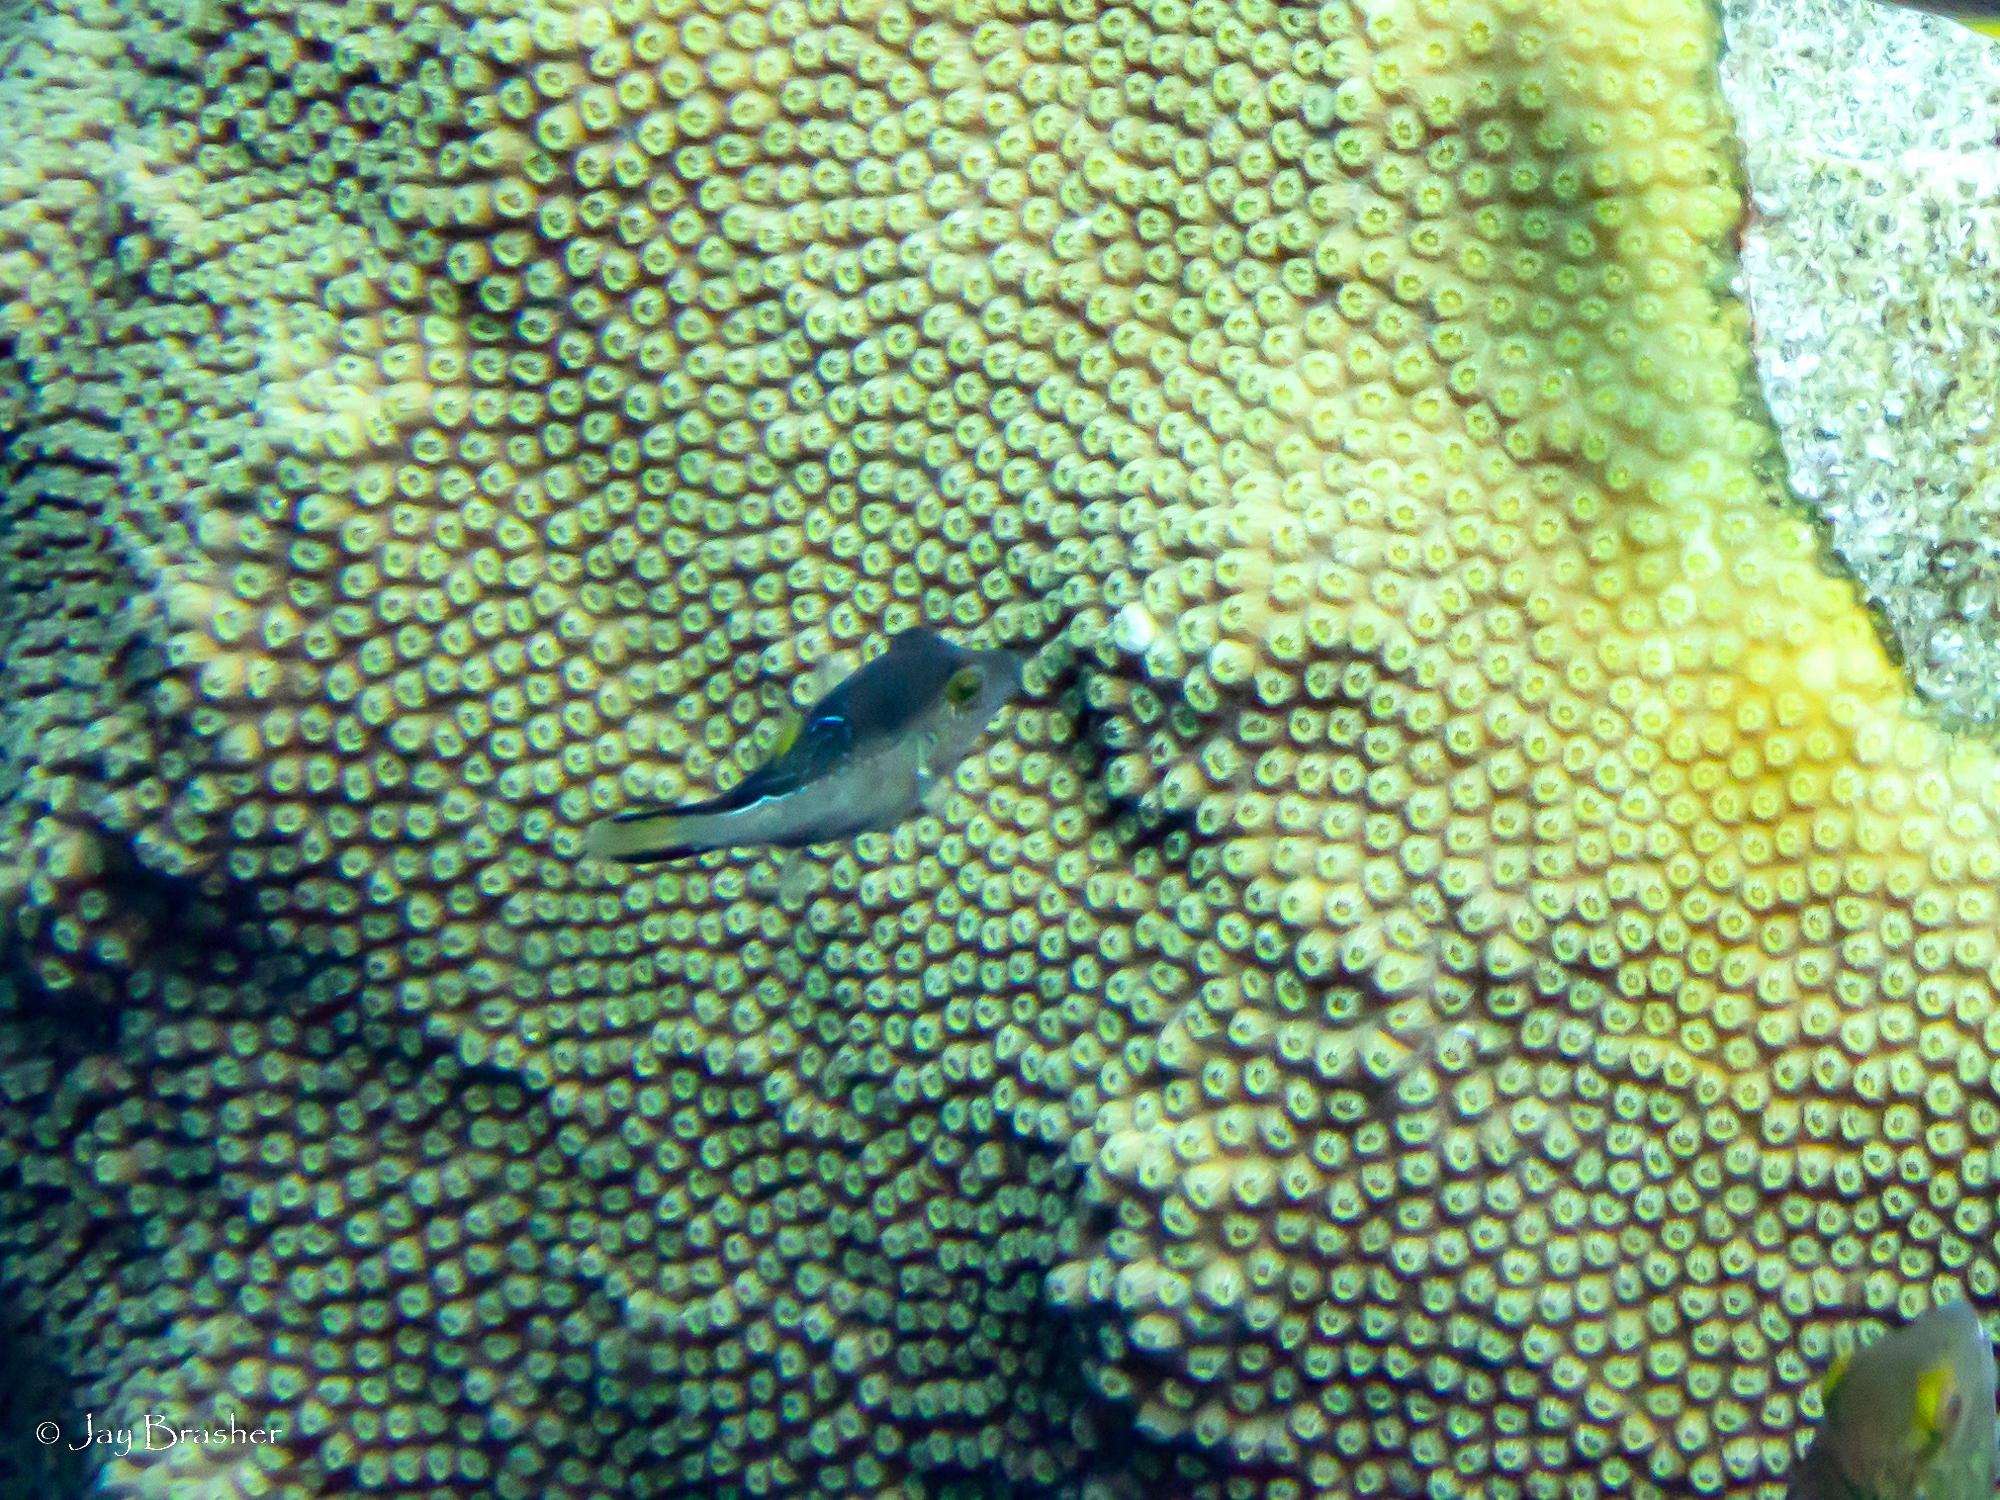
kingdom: Animalia
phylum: Chordata
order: Tetraodontiformes
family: Tetraodontidae
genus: Canthigaster
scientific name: Canthigaster rostrata
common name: Caribbean sharpnose-puffer
